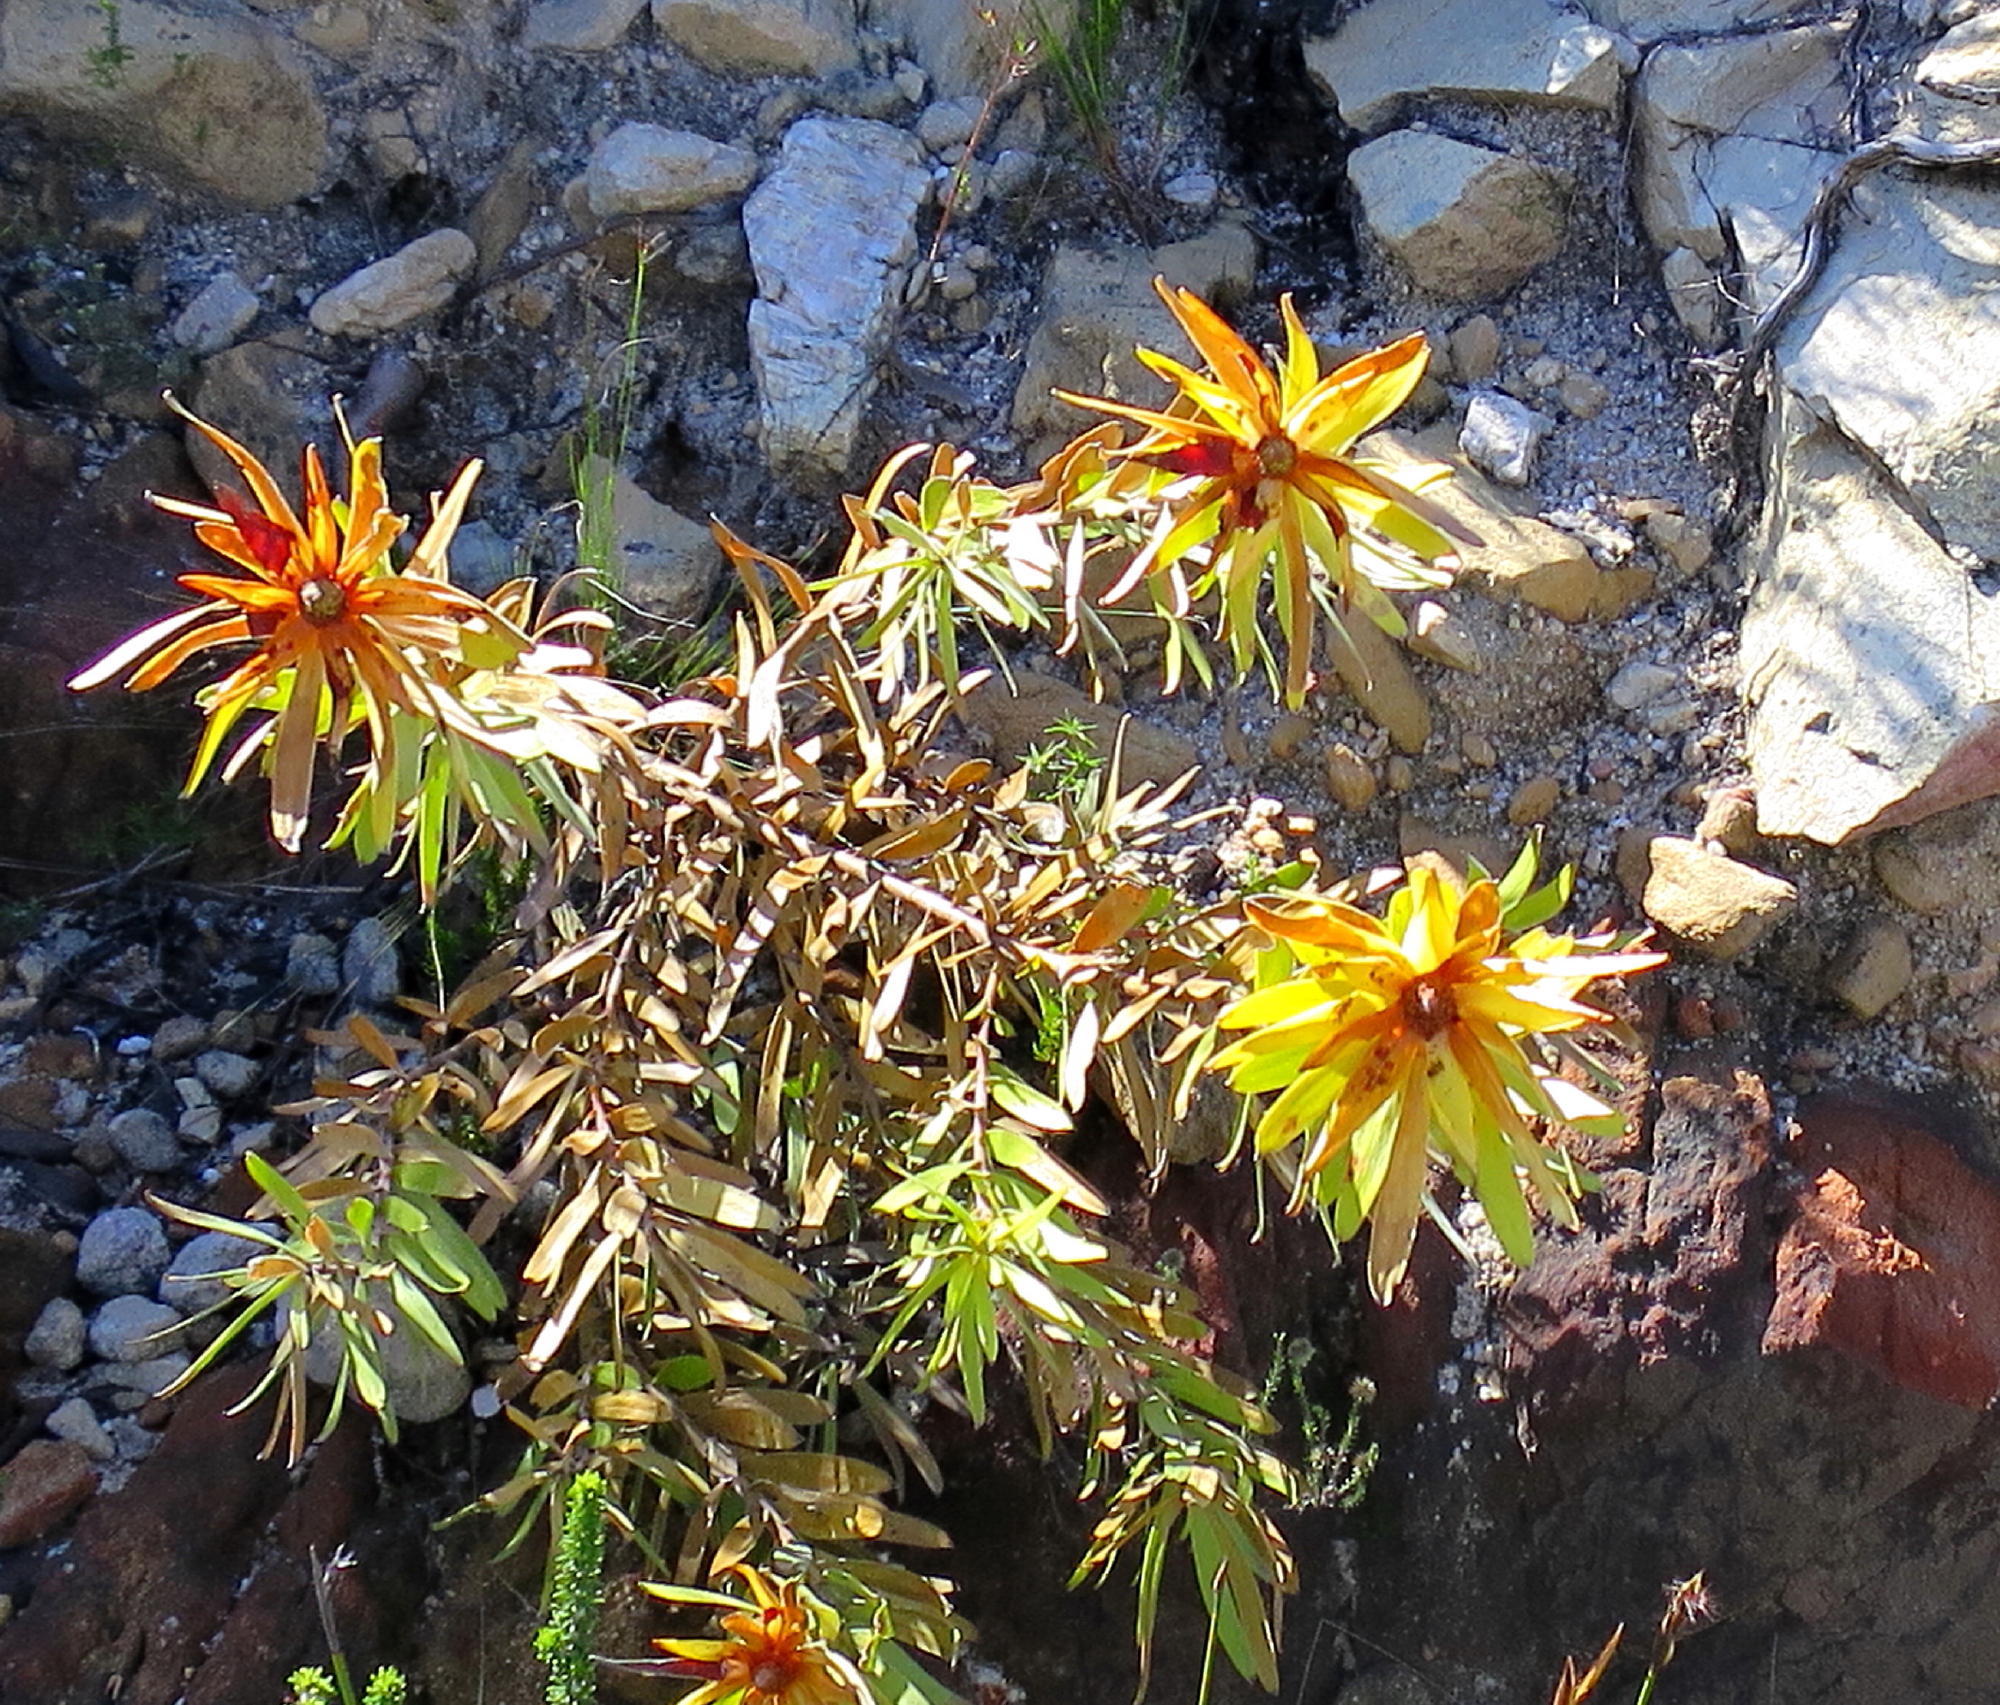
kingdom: Plantae
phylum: Tracheophyta
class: Magnoliopsida
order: Proteales
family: Proteaceae
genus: Leucadendron
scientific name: Leucadendron microcephalum
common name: Oilbract conebush
